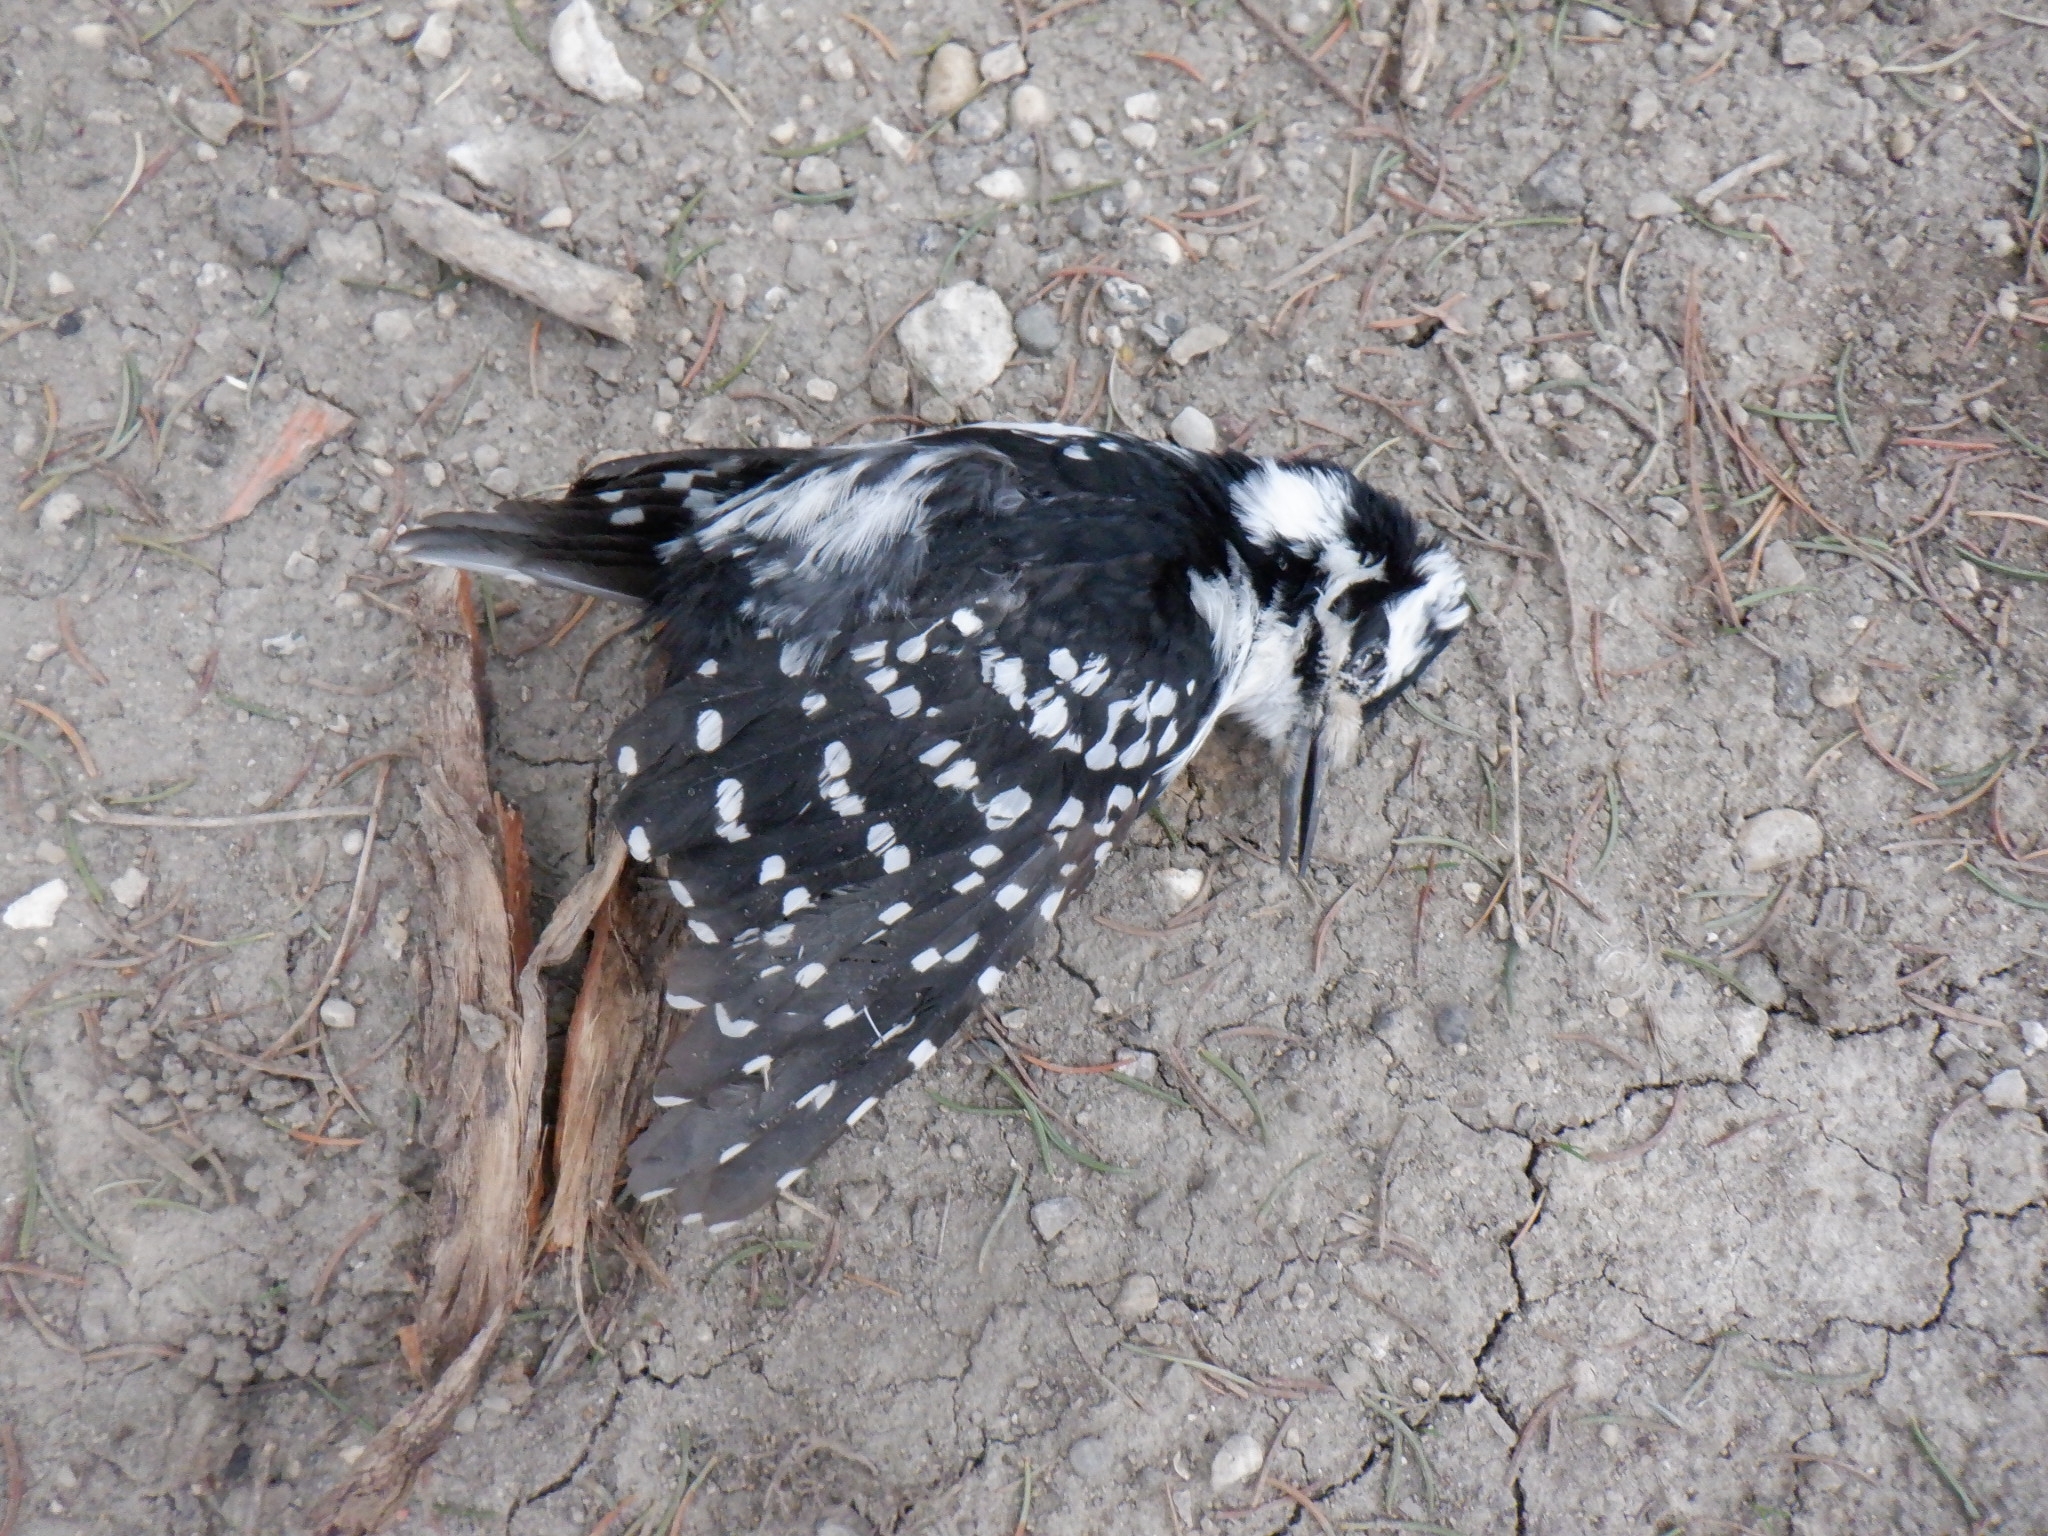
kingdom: Animalia
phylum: Chordata
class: Aves
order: Piciformes
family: Picidae
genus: Leuconotopicus
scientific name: Leuconotopicus villosus
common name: Hairy woodpecker
